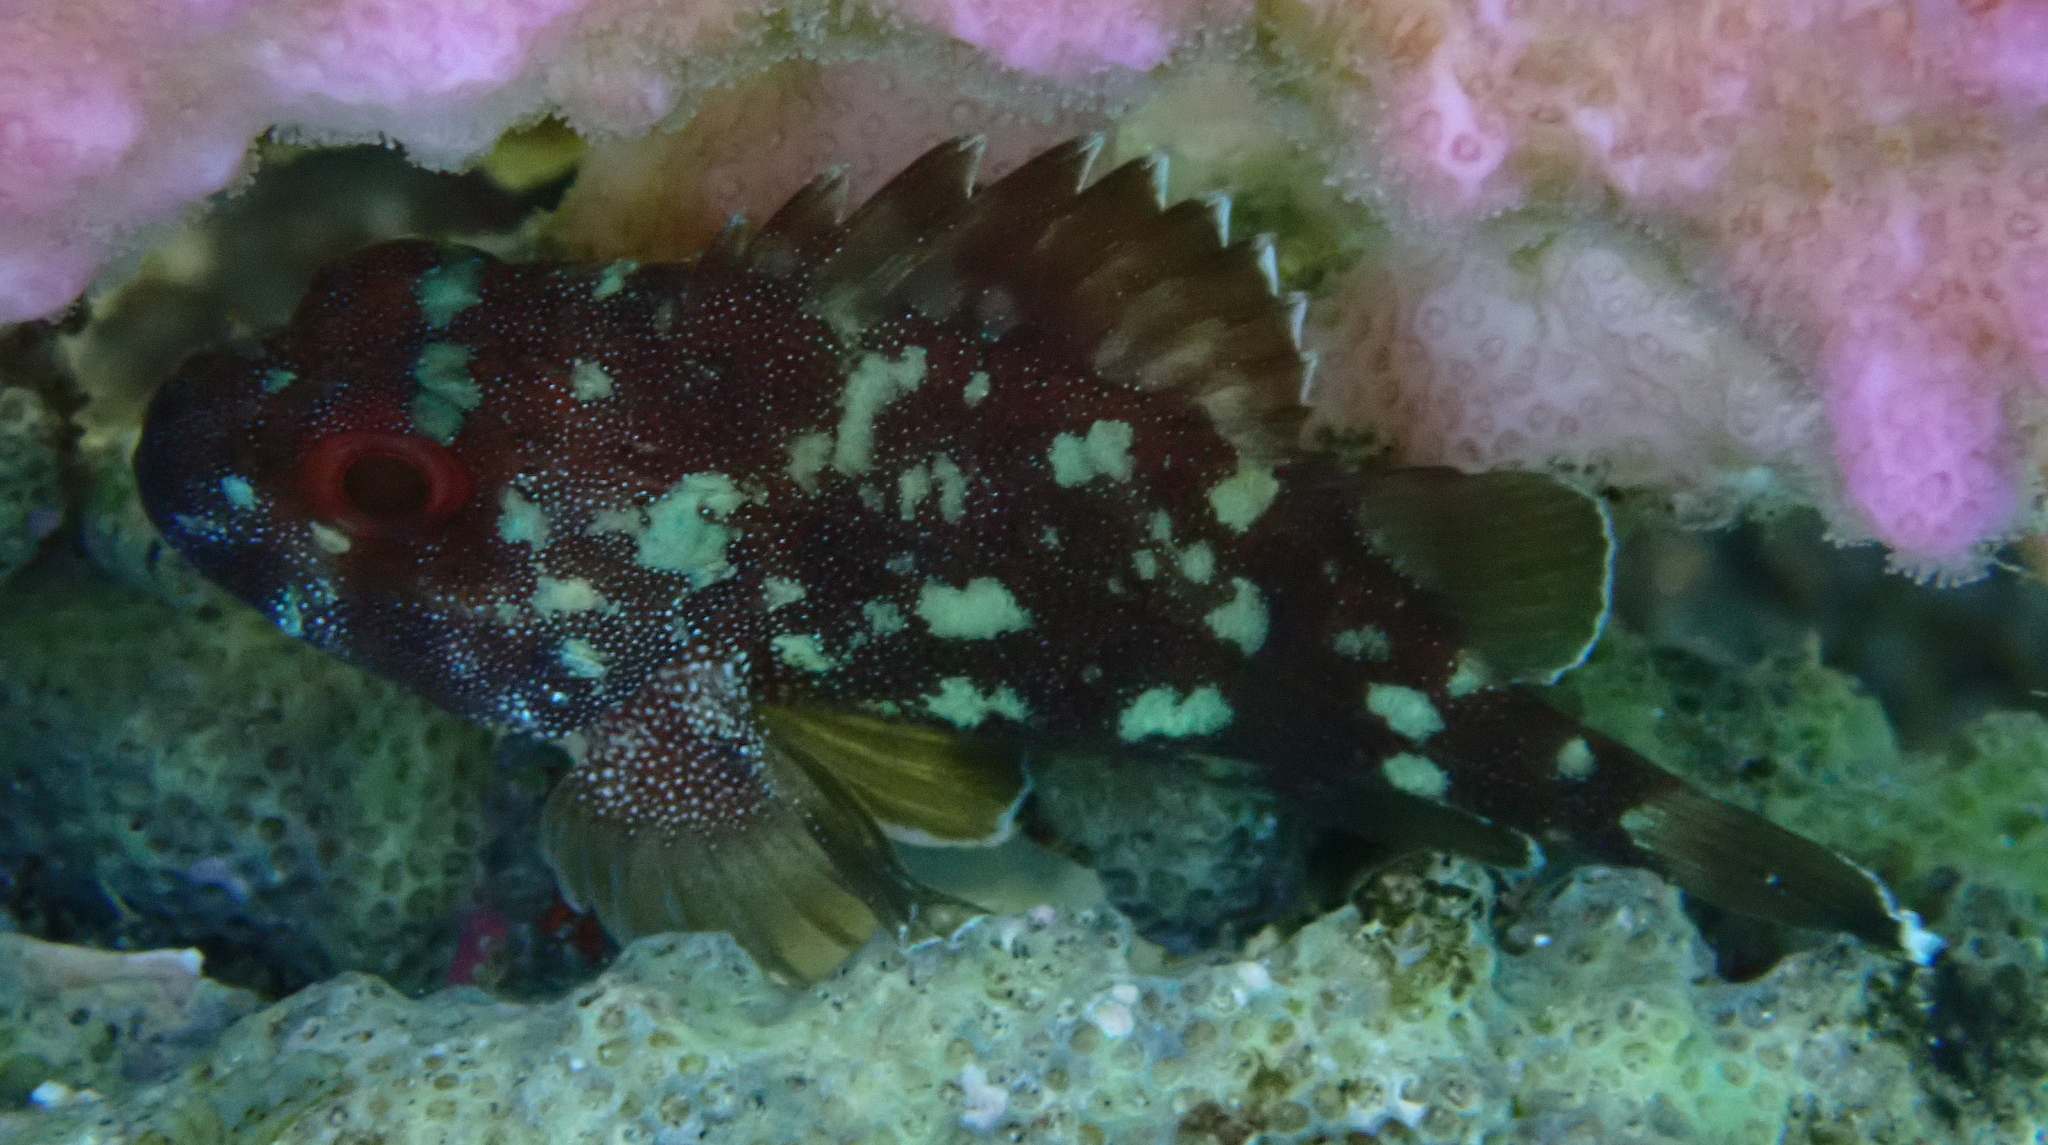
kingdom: Animalia
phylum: Chordata
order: Scorpaeniformes
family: Scorpaenidae
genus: Sebastapistes
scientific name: Sebastapistes cyanostigma
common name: Yellowspotted scorpionfish
